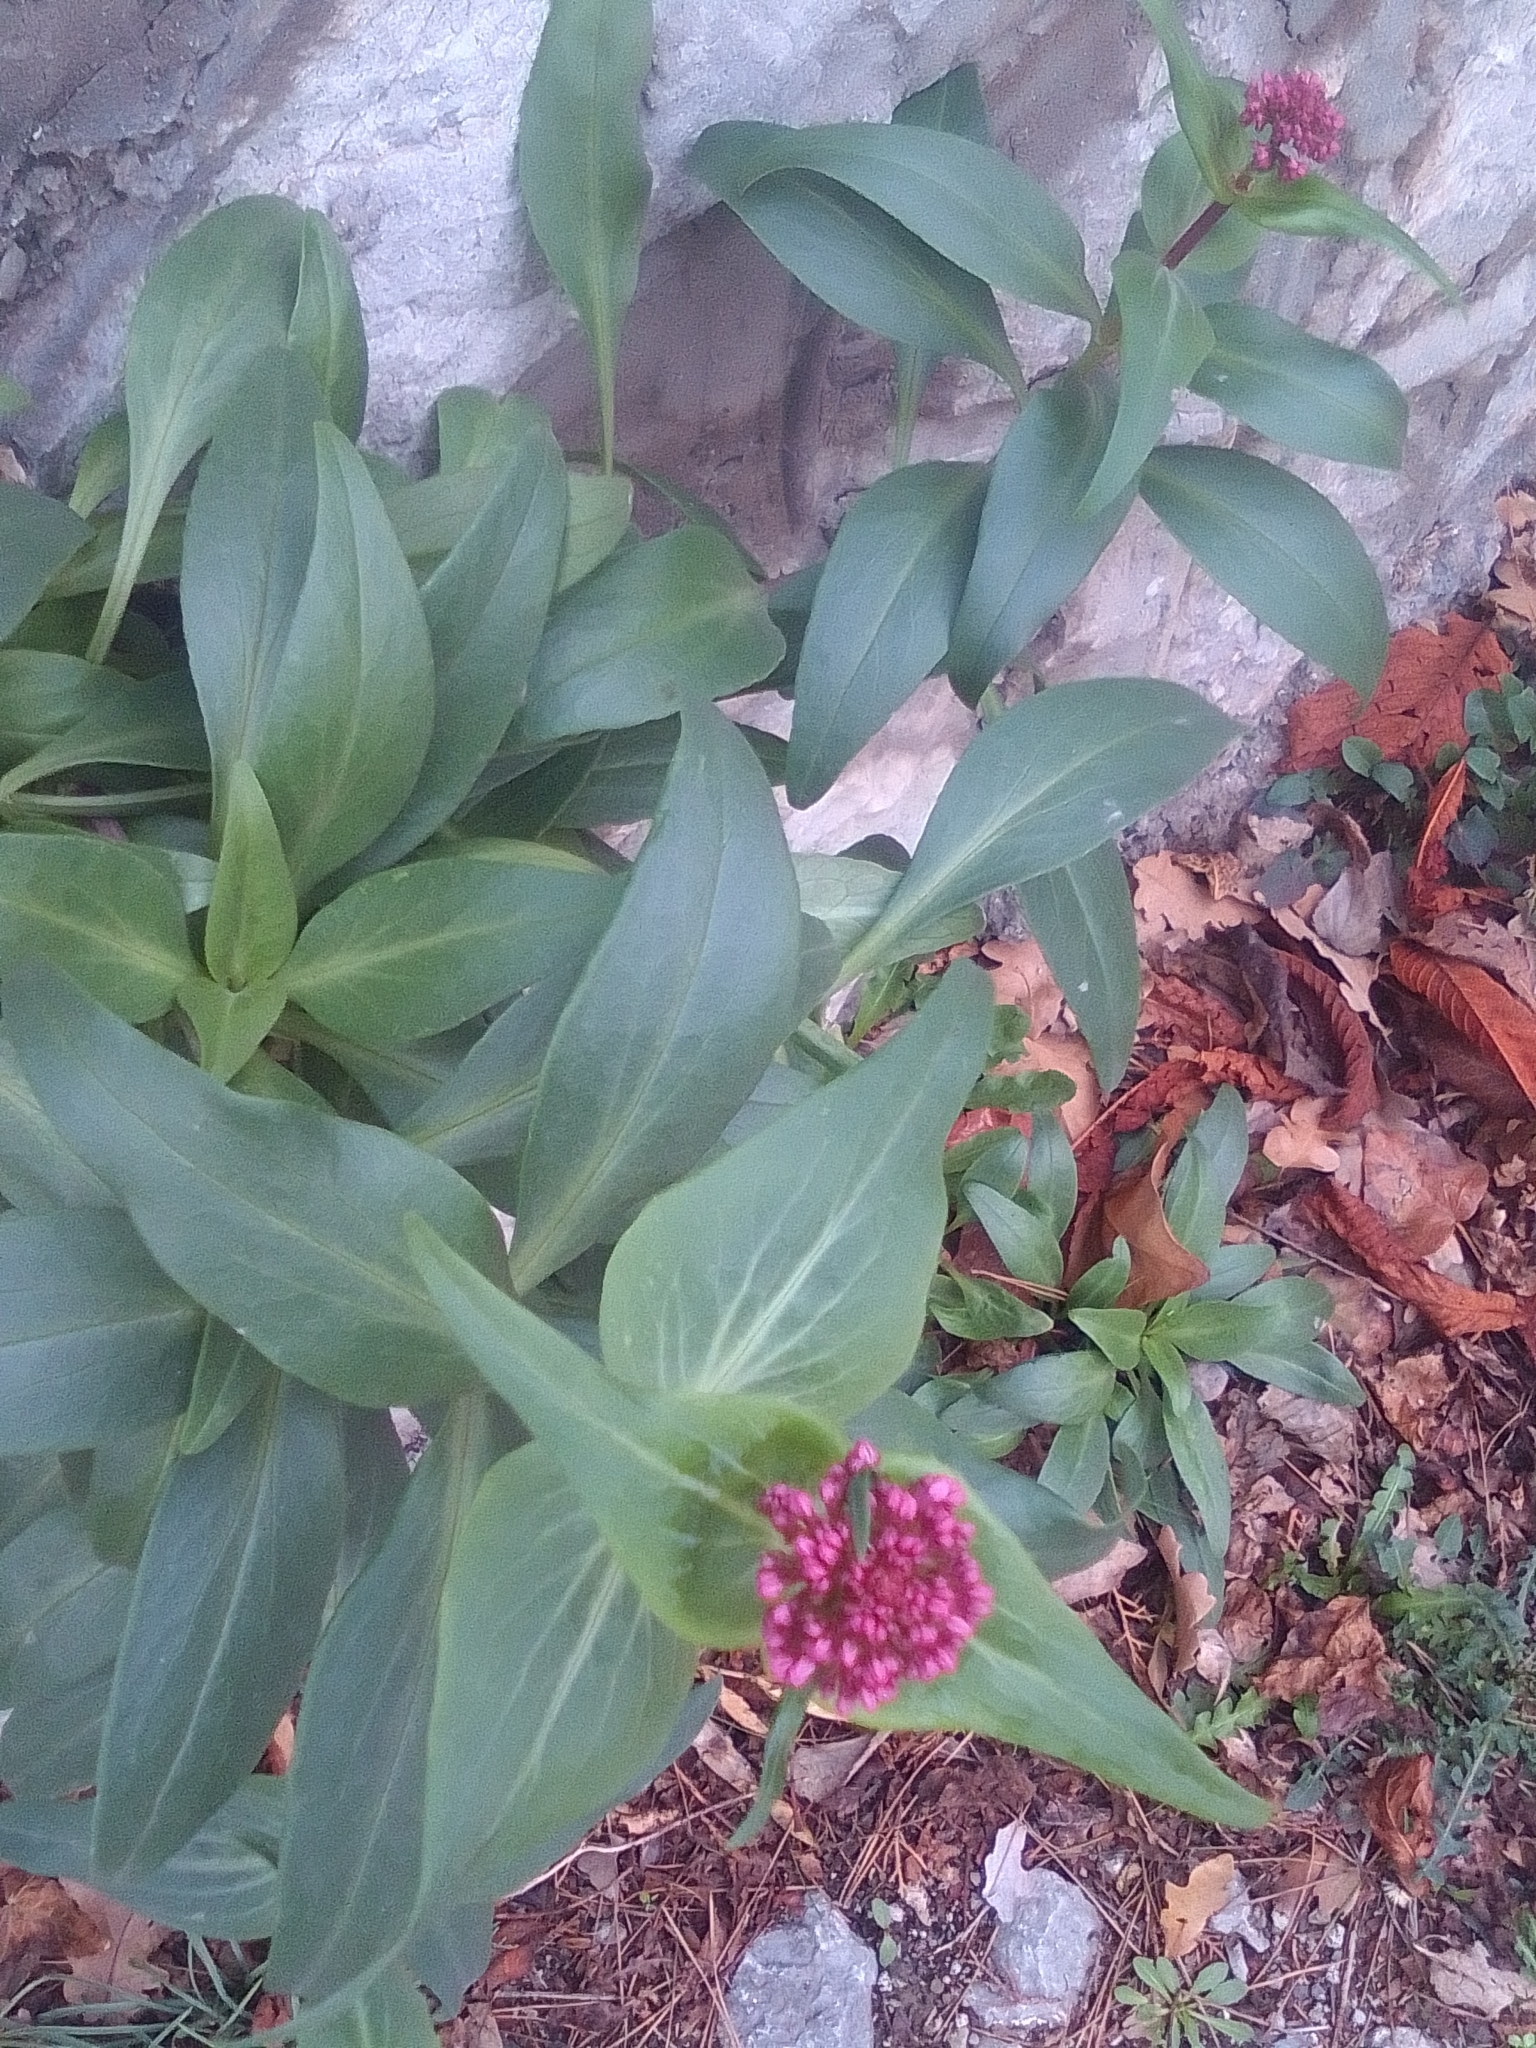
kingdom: Plantae
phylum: Tracheophyta
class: Magnoliopsida
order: Dipsacales
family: Caprifoliaceae
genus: Centranthus
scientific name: Centranthus ruber
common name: Red valerian
